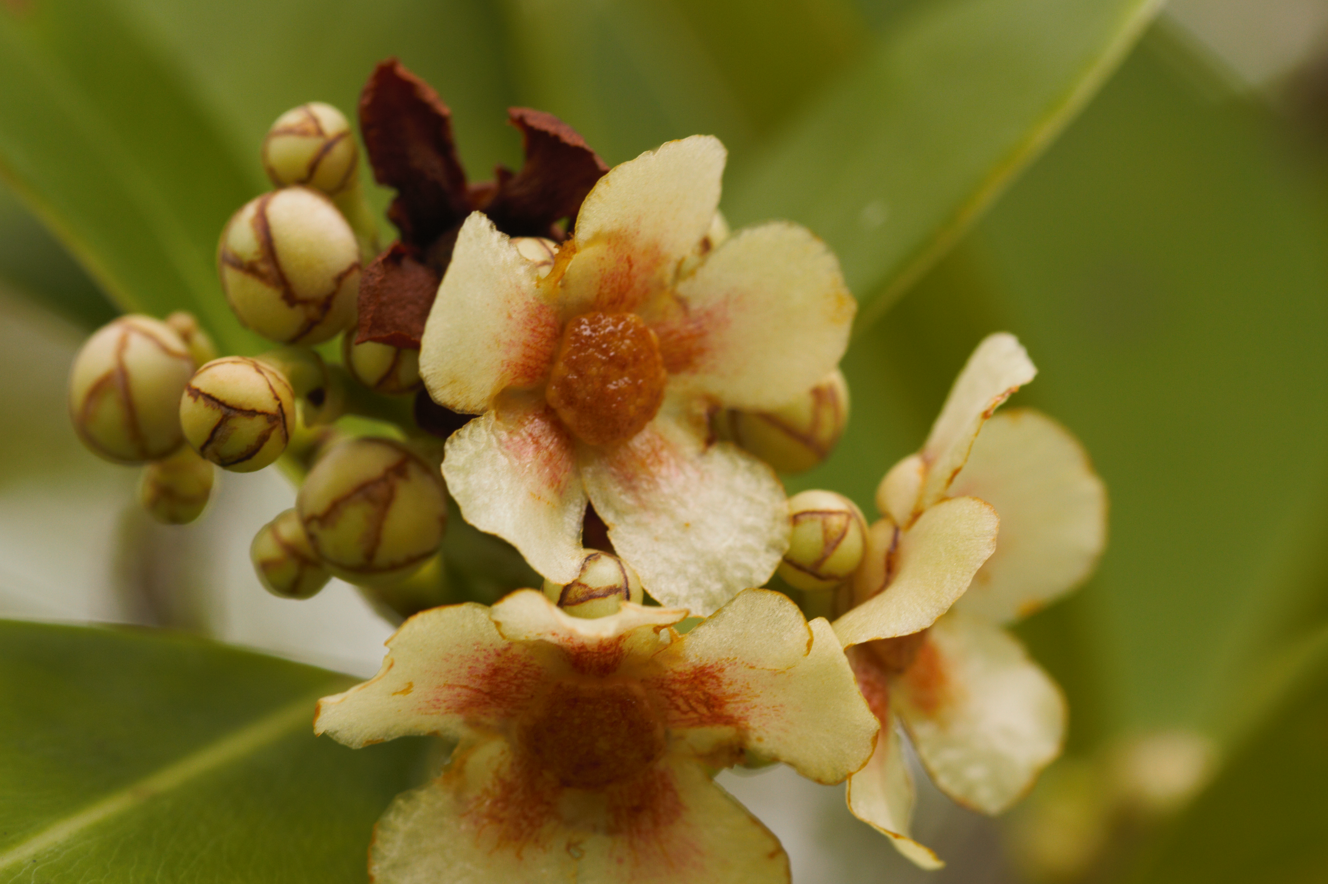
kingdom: Plantae
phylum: Tracheophyta
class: Magnoliopsida
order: Malpighiales
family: Clusiaceae
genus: Clusia
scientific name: Clusia panapanari
